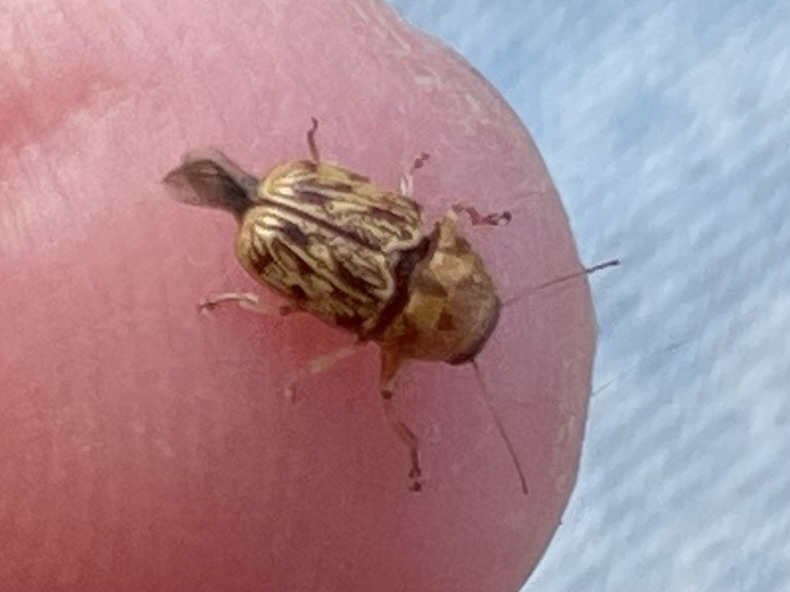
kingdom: Animalia
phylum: Arthropoda
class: Insecta
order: Coleoptera
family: Chrysomelidae
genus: Pachybrachis
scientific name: Pachybrachis
